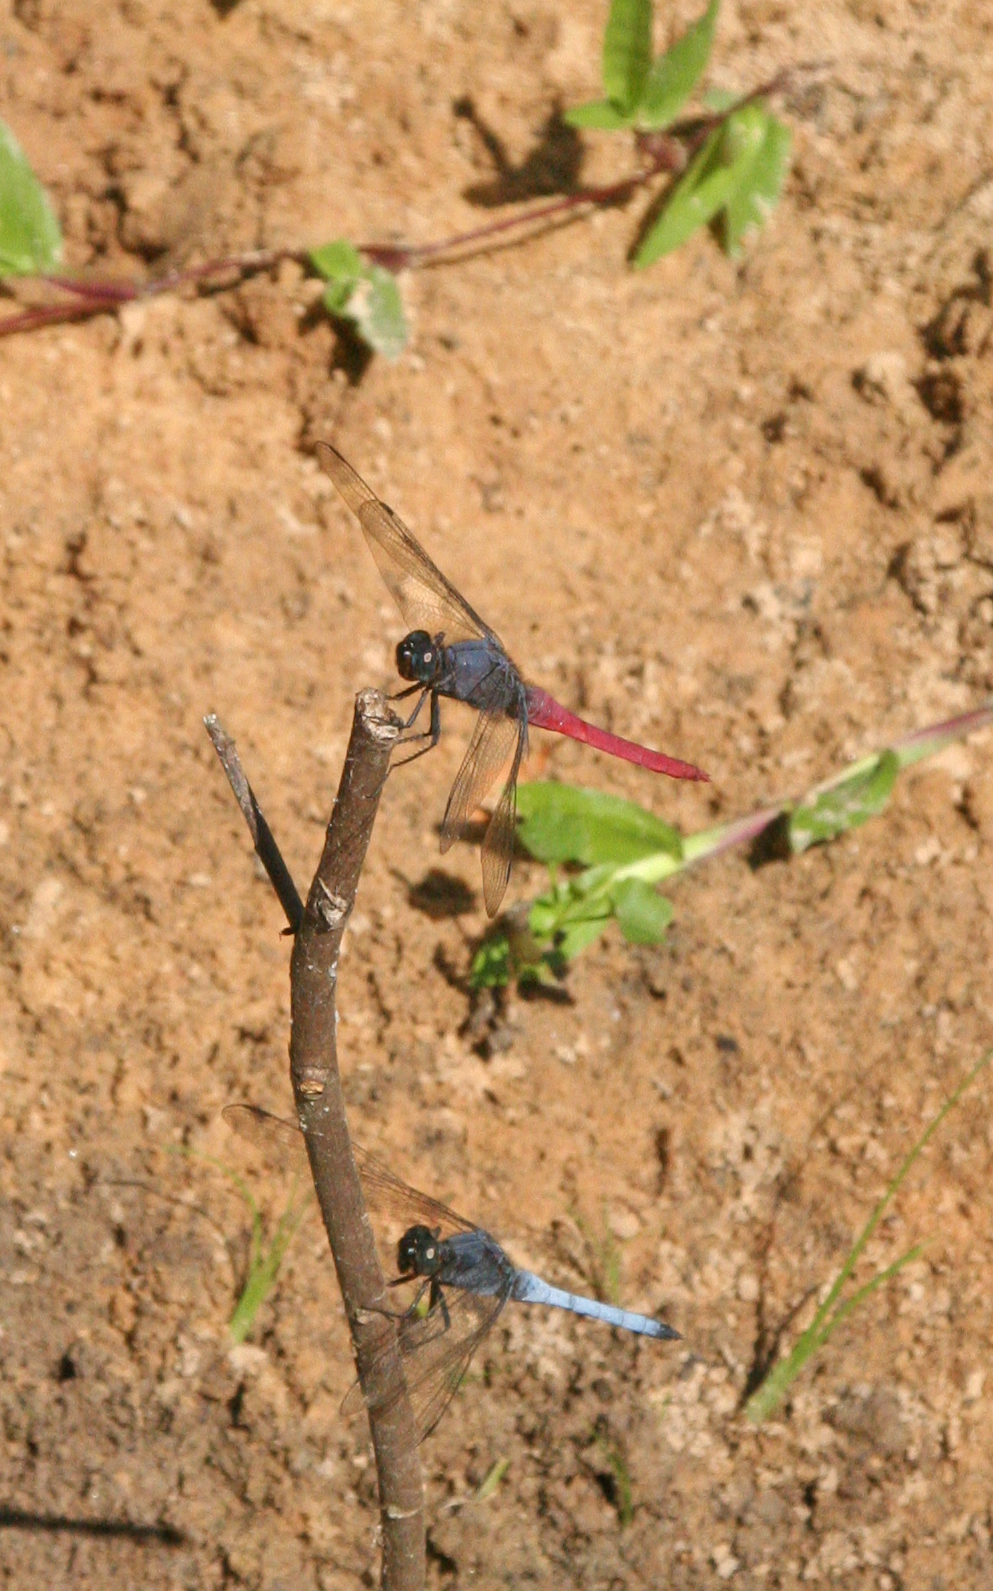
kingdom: Animalia
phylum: Arthropoda
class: Insecta
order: Odonata
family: Libellulidae
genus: Orthetrum
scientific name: Orthetrum pruinosum
